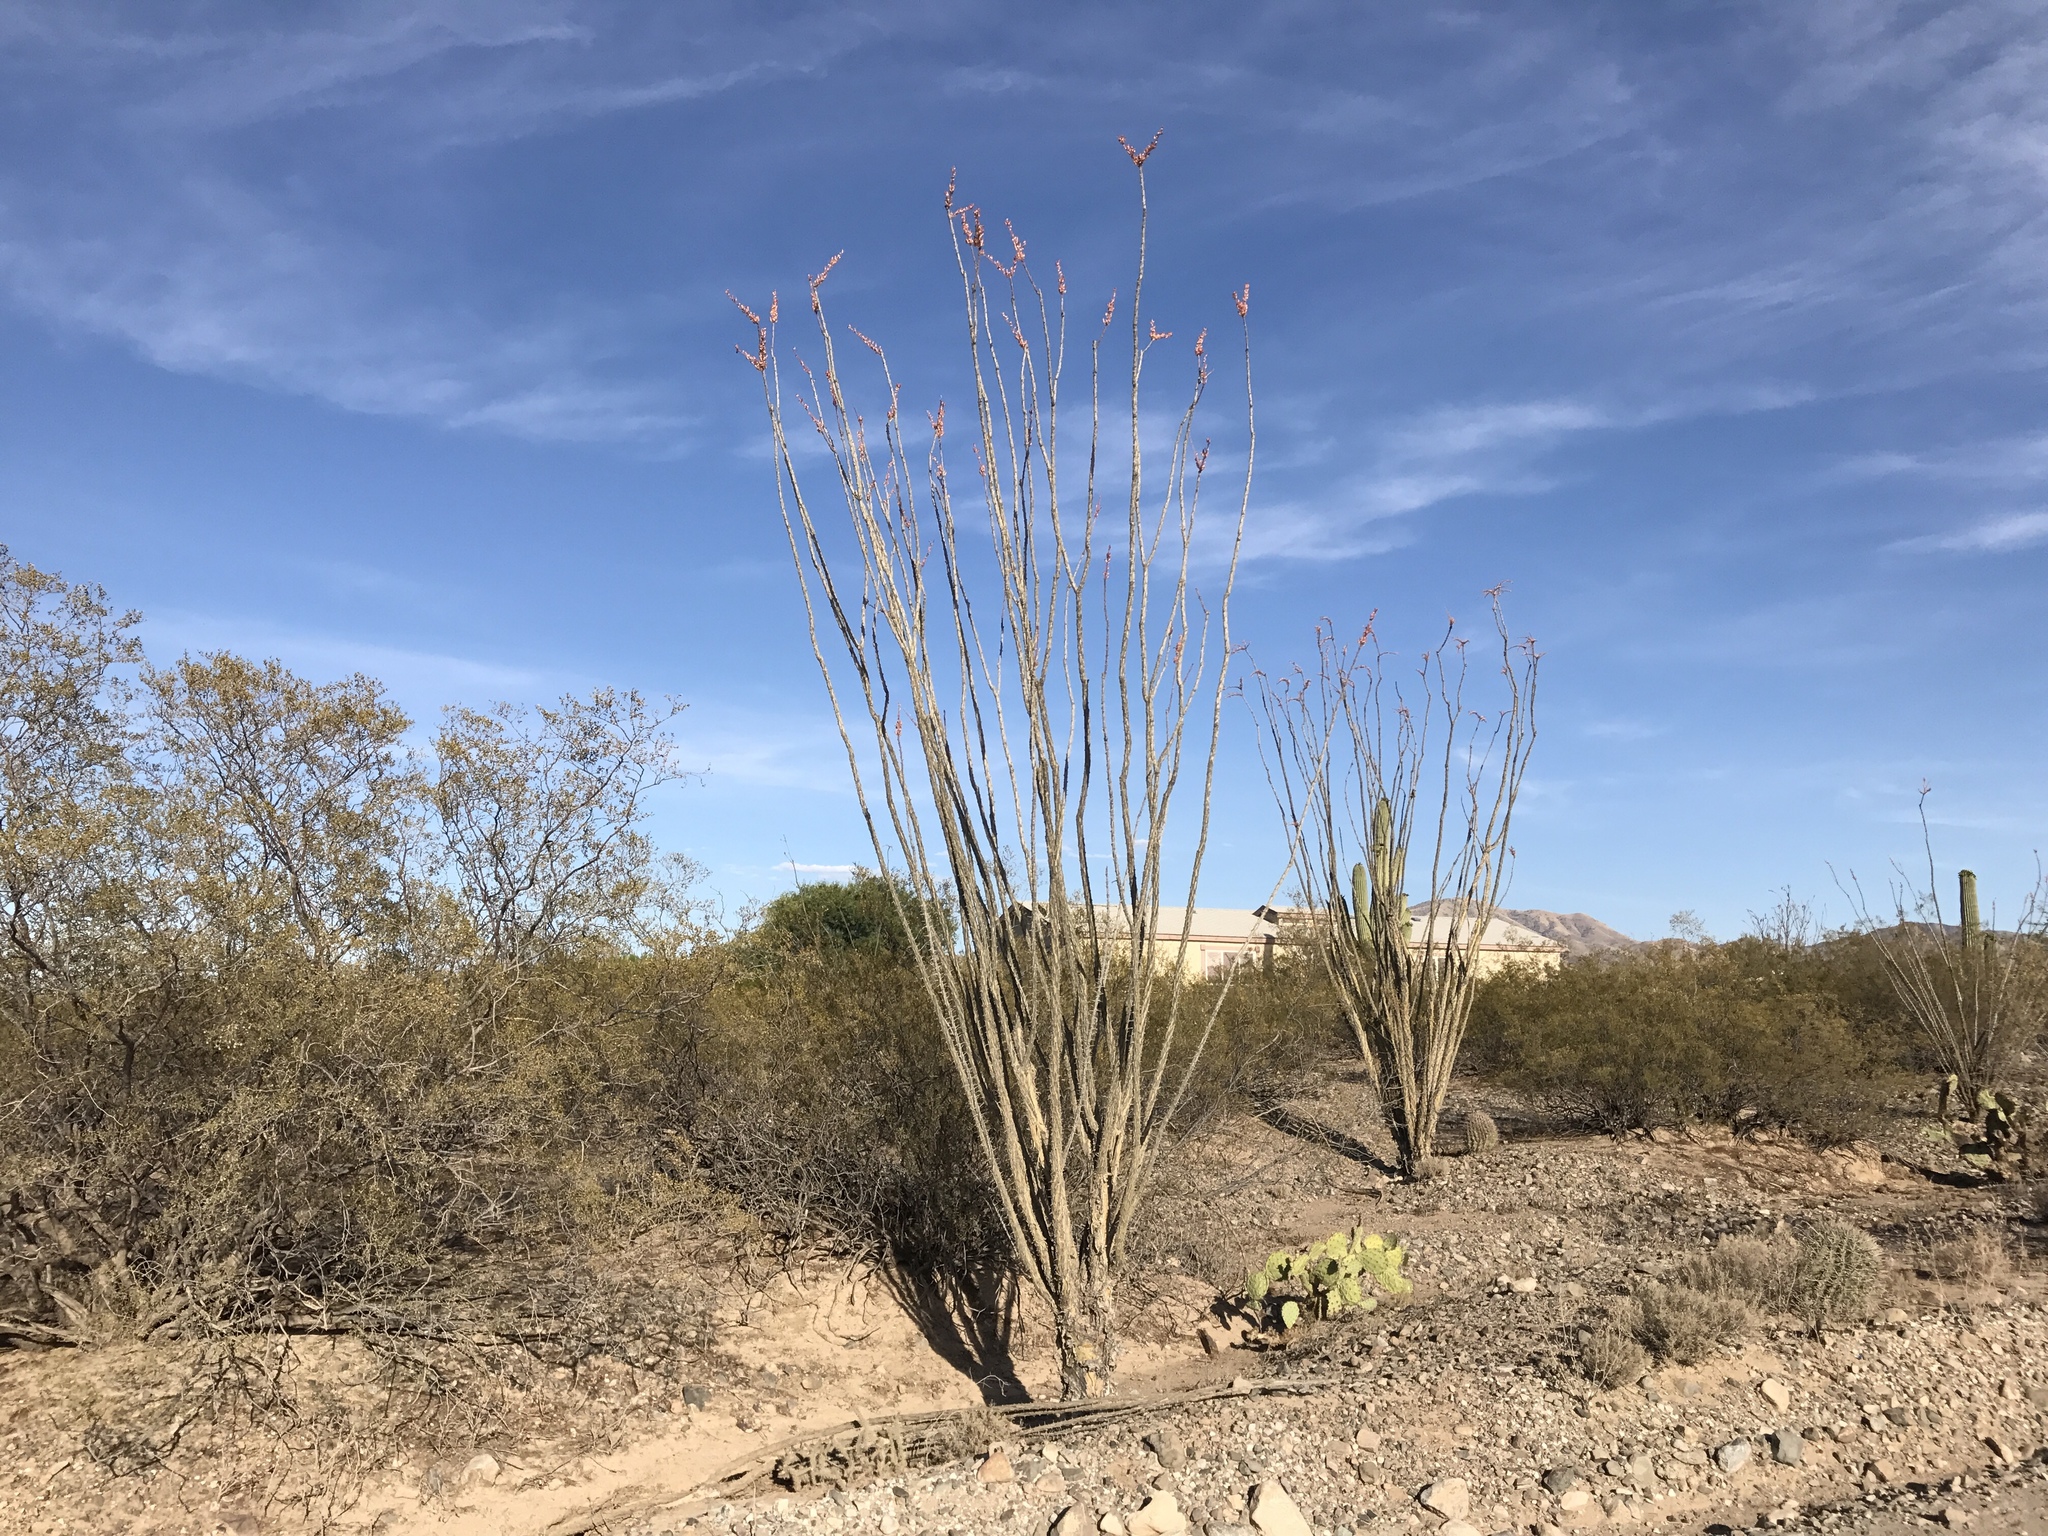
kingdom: Plantae
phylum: Tracheophyta
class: Magnoliopsida
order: Ericales
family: Fouquieriaceae
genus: Fouquieria
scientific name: Fouquieria splendens
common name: Vine-cactus
